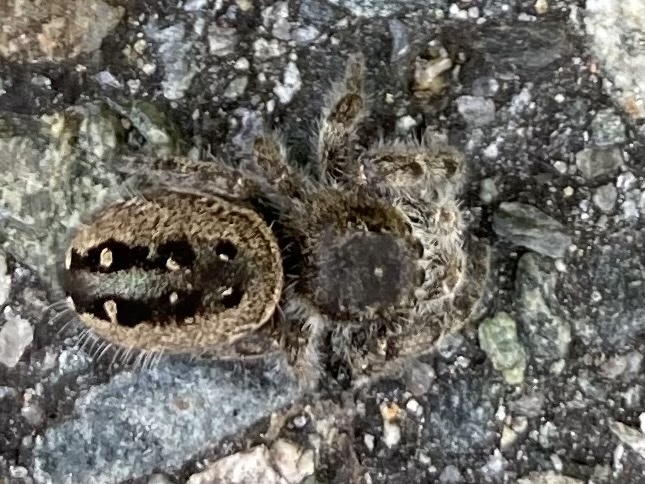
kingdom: Animalia
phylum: Arthropoda
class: Arachnida
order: Araneae
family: Salticidae
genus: Phidippus
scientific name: Phidippus purpuratus
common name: Marbled purple jumping spider
